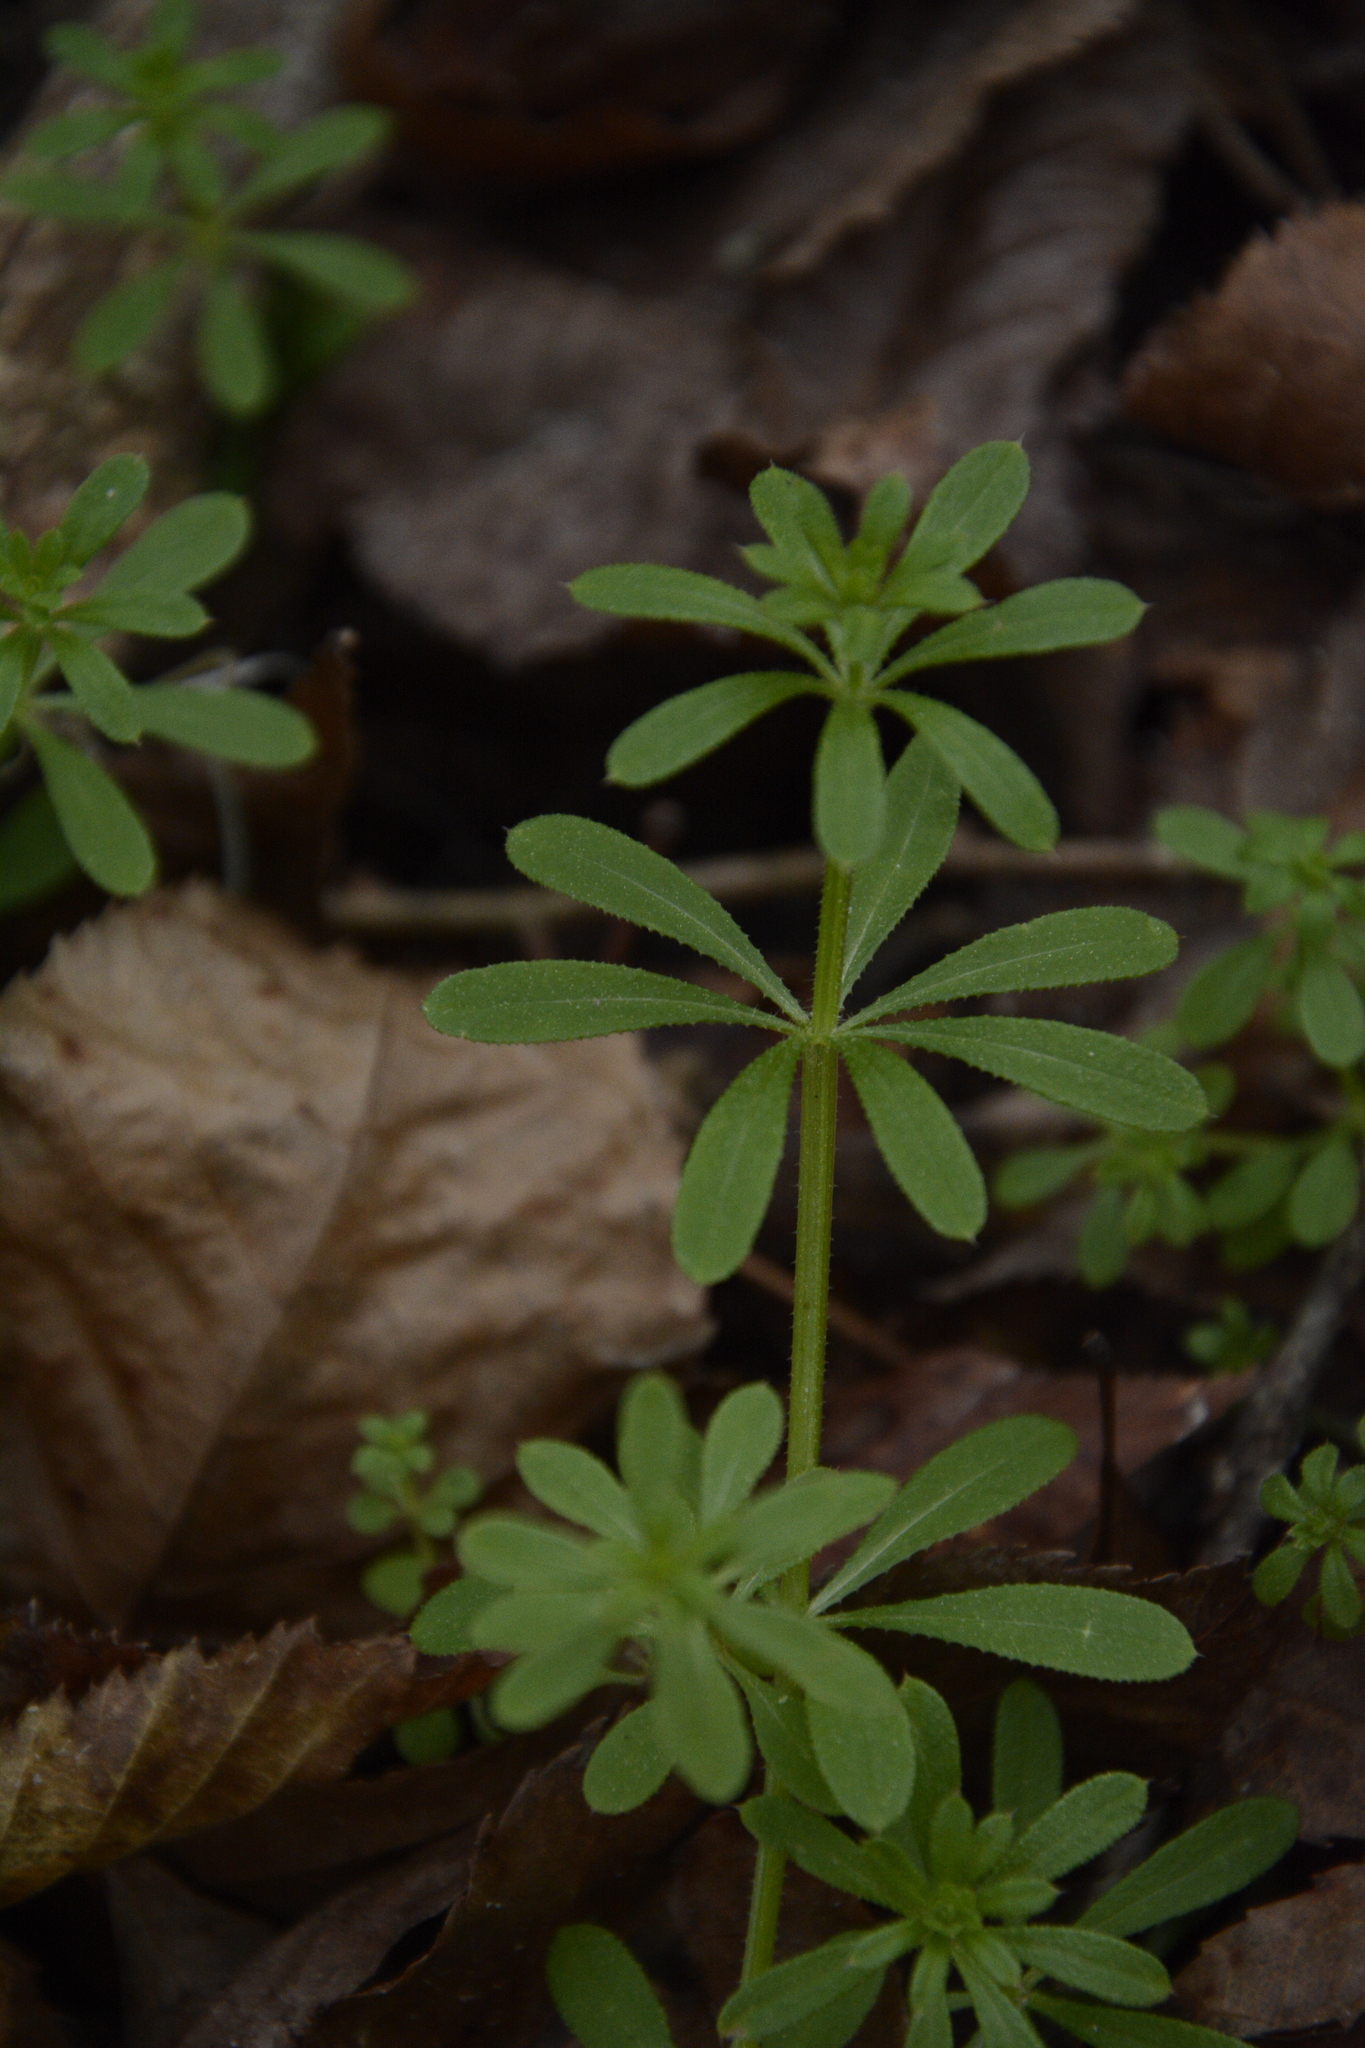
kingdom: Plantae
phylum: Tracheophyta
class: Magnoliopsida
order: Gentianales
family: Rubiaceae
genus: Galium
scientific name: Galium aparine
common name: Cleavers
